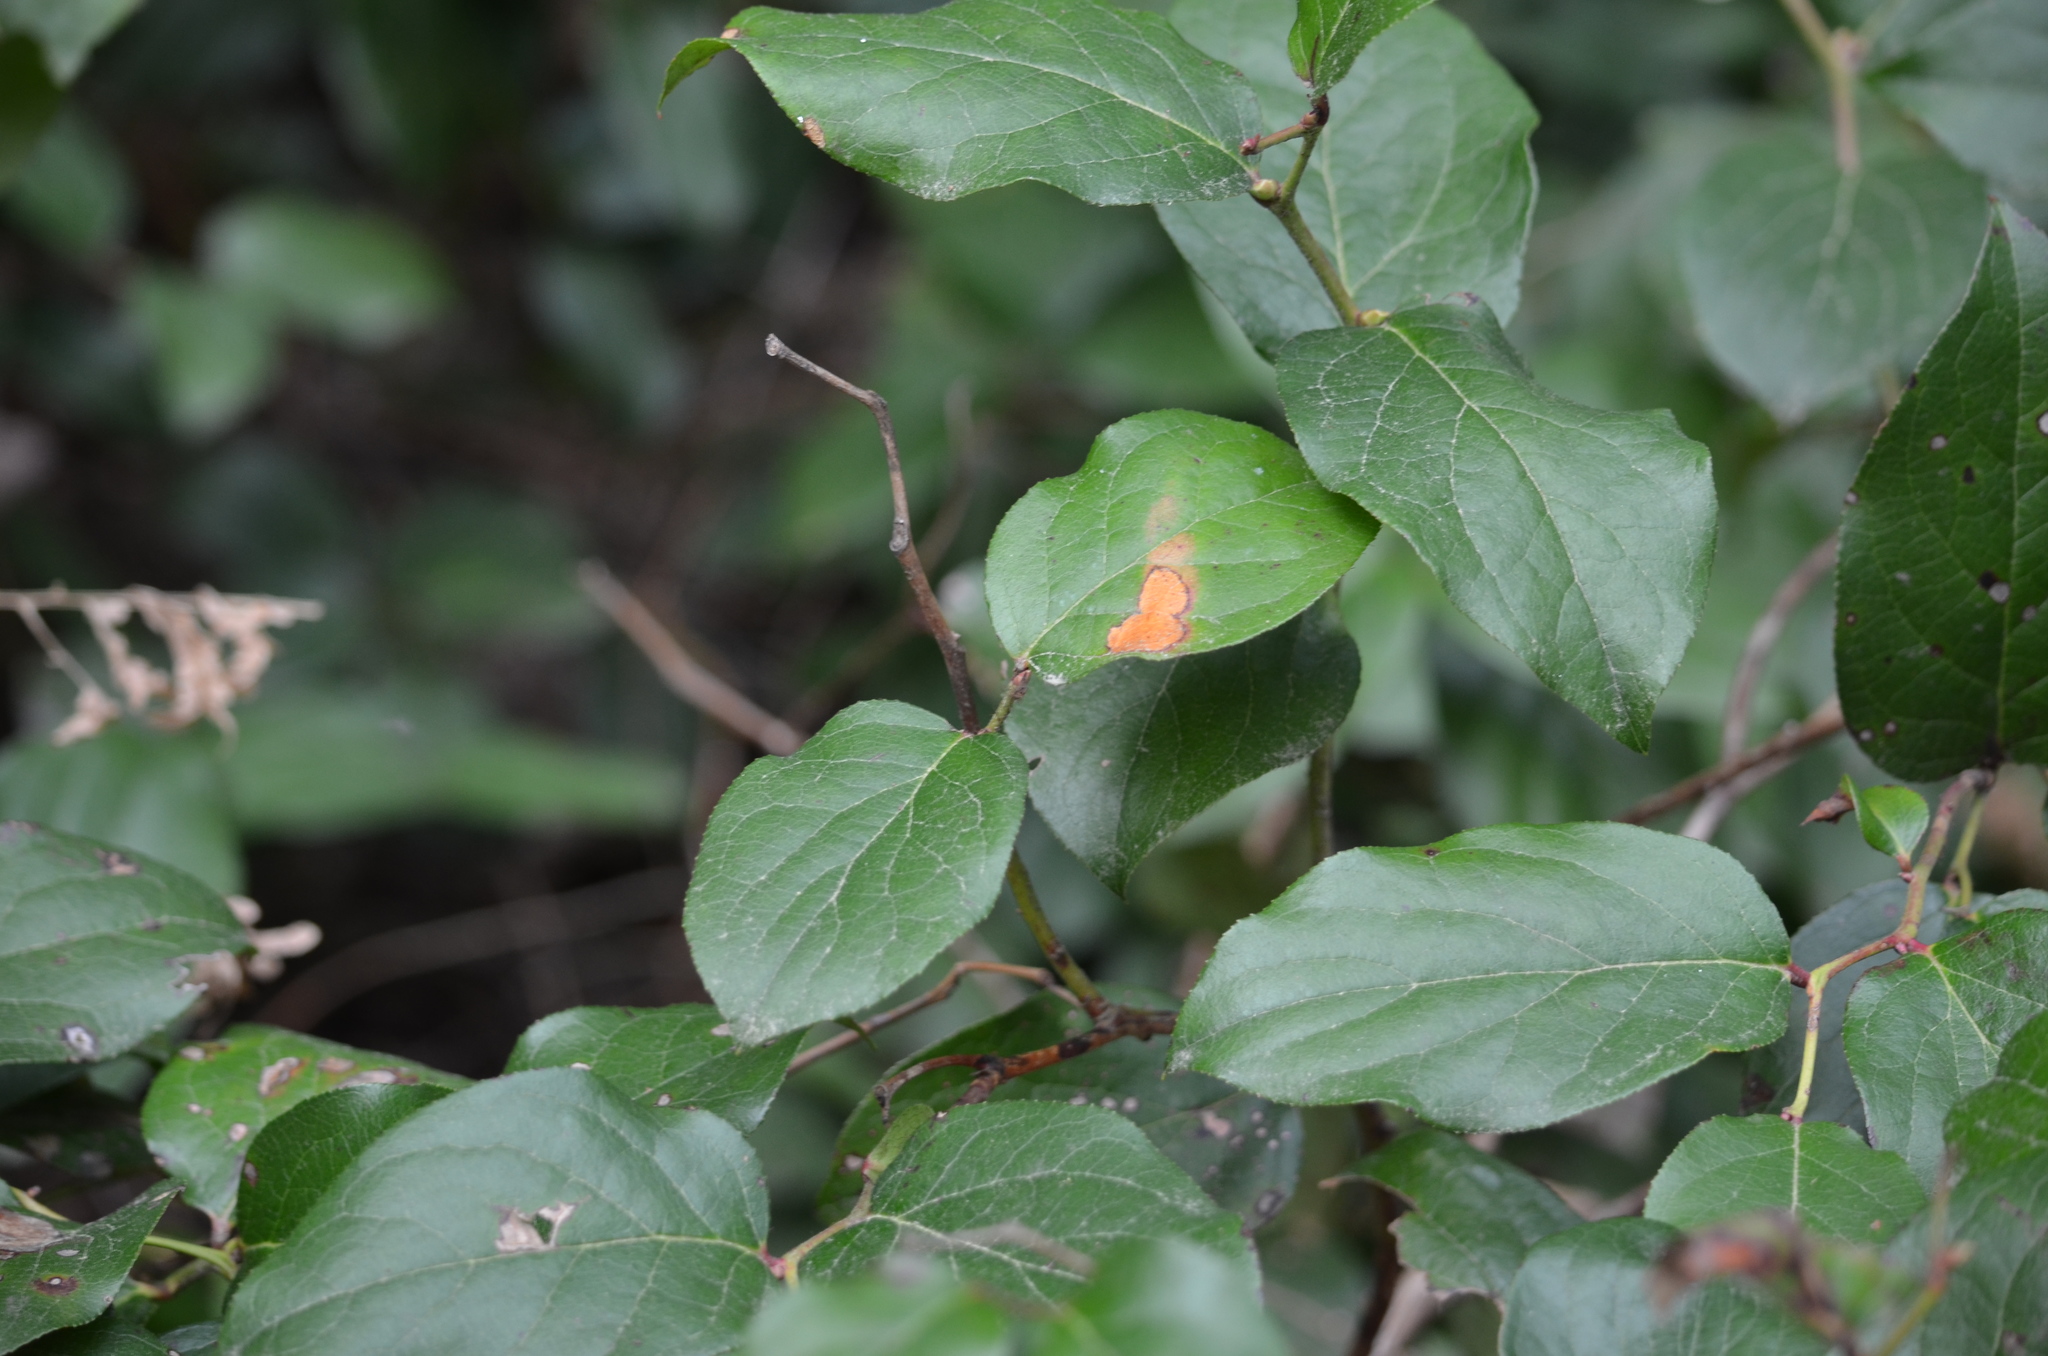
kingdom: Plantae
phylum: Tracheophyta
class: Magnoliopsida
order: Ericales
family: Ericaceae
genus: Gaultheria
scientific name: Gaultheria shallon
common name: Shallon
